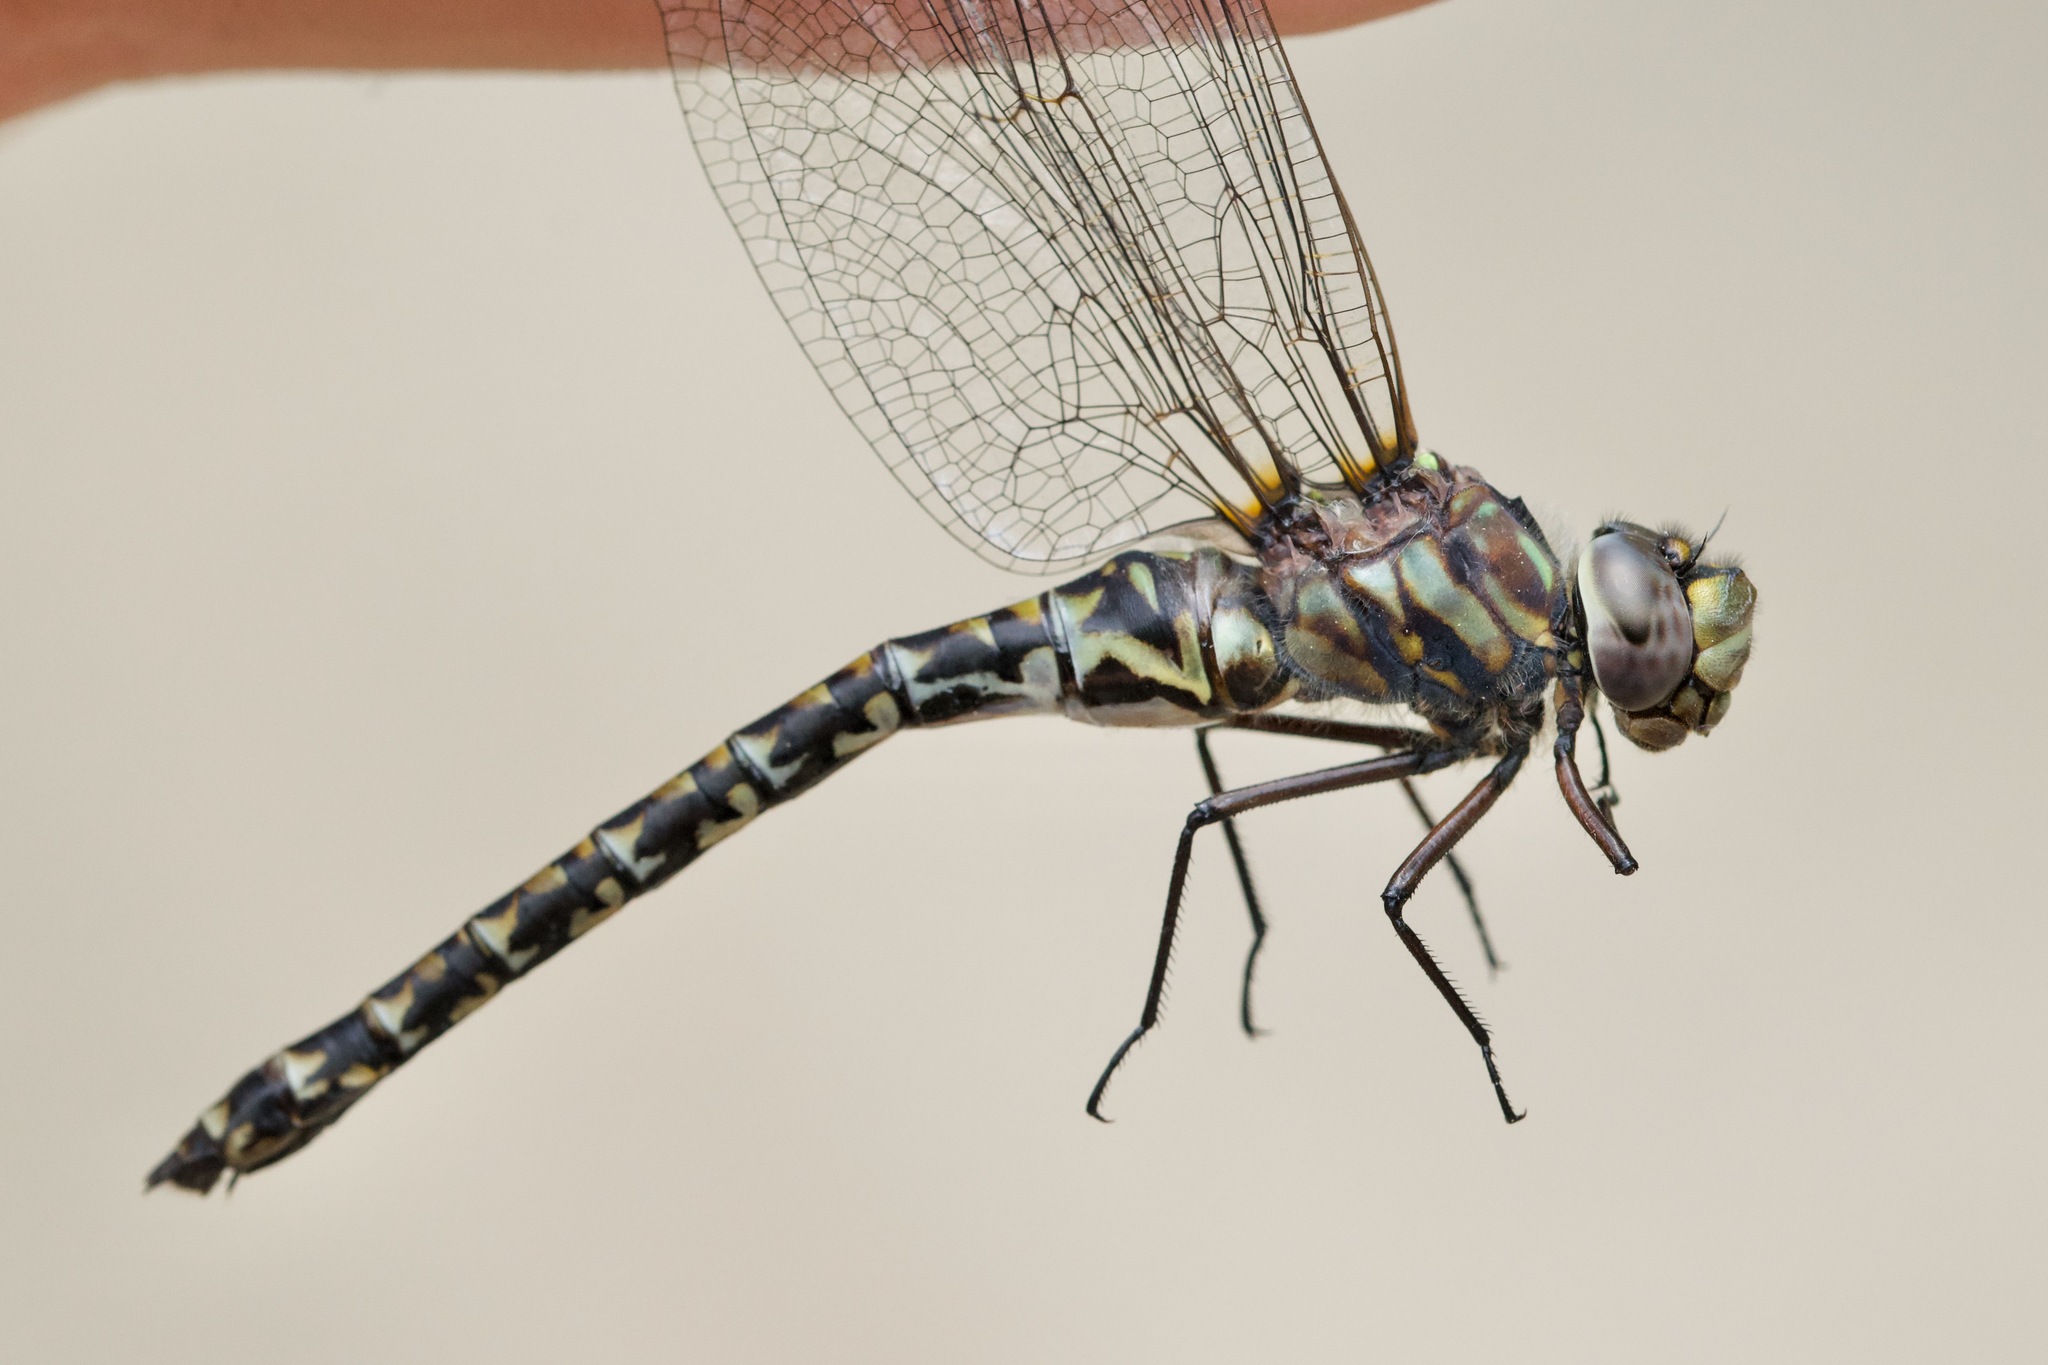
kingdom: Animalia
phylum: Arthropoda
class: Insecta
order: Odonata
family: Aeshnidae
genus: Gomphaeschna
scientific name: Gomphaeschna furcillata
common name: Harlequin darner
